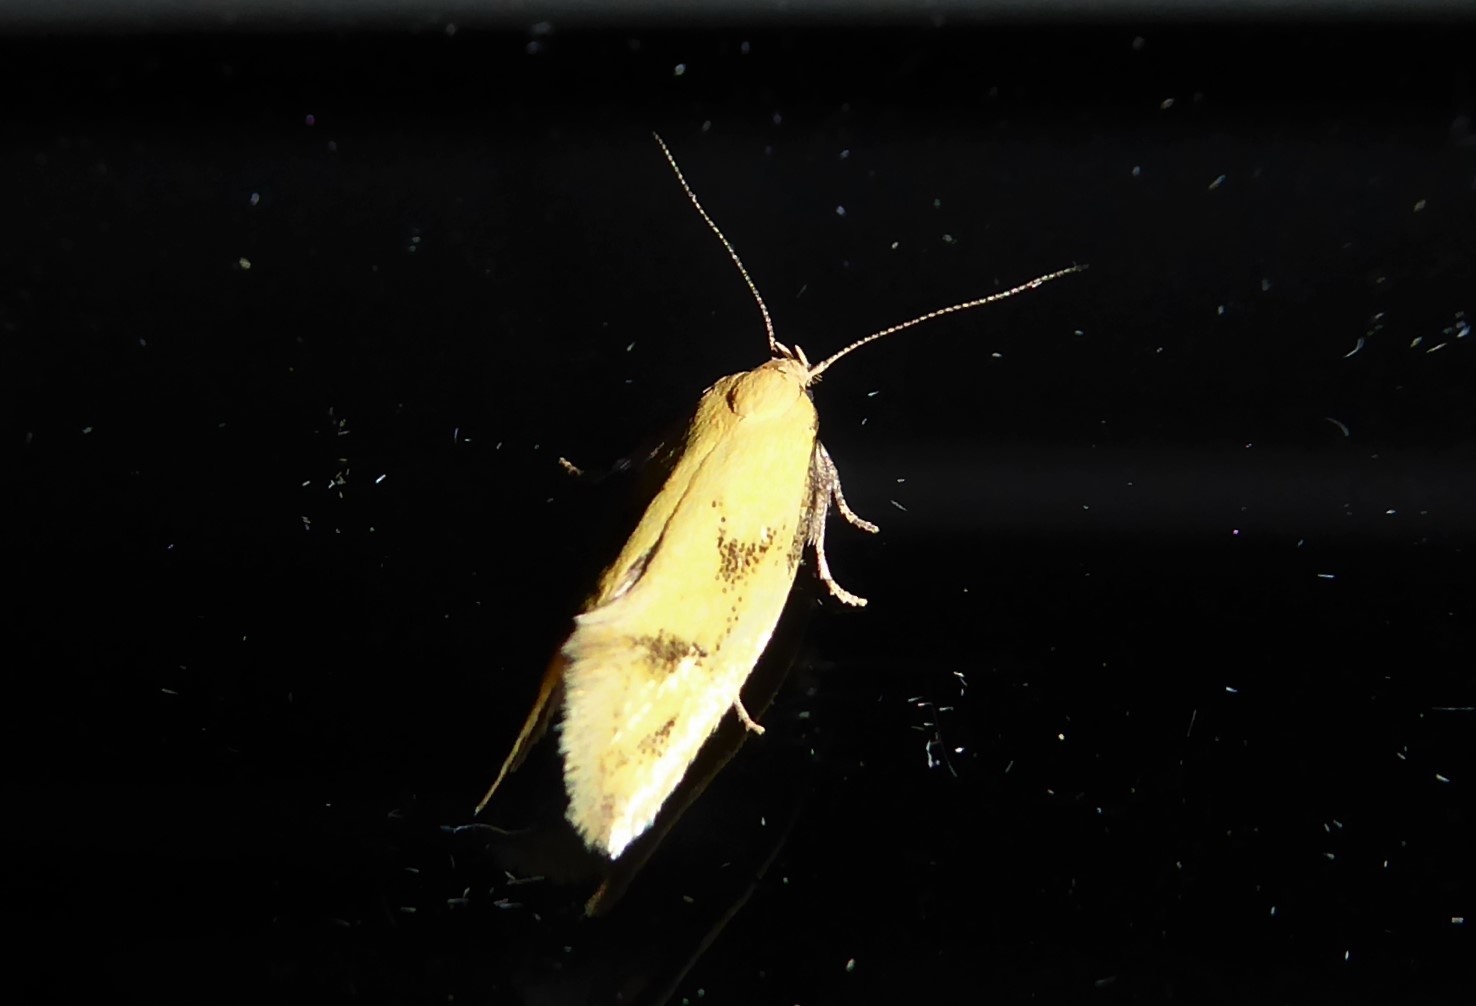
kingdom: Animalia
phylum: Arthropoda
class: Insecta
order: Lepidoptera
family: Oecophoridae
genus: Tingena
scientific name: Tingena actinias
